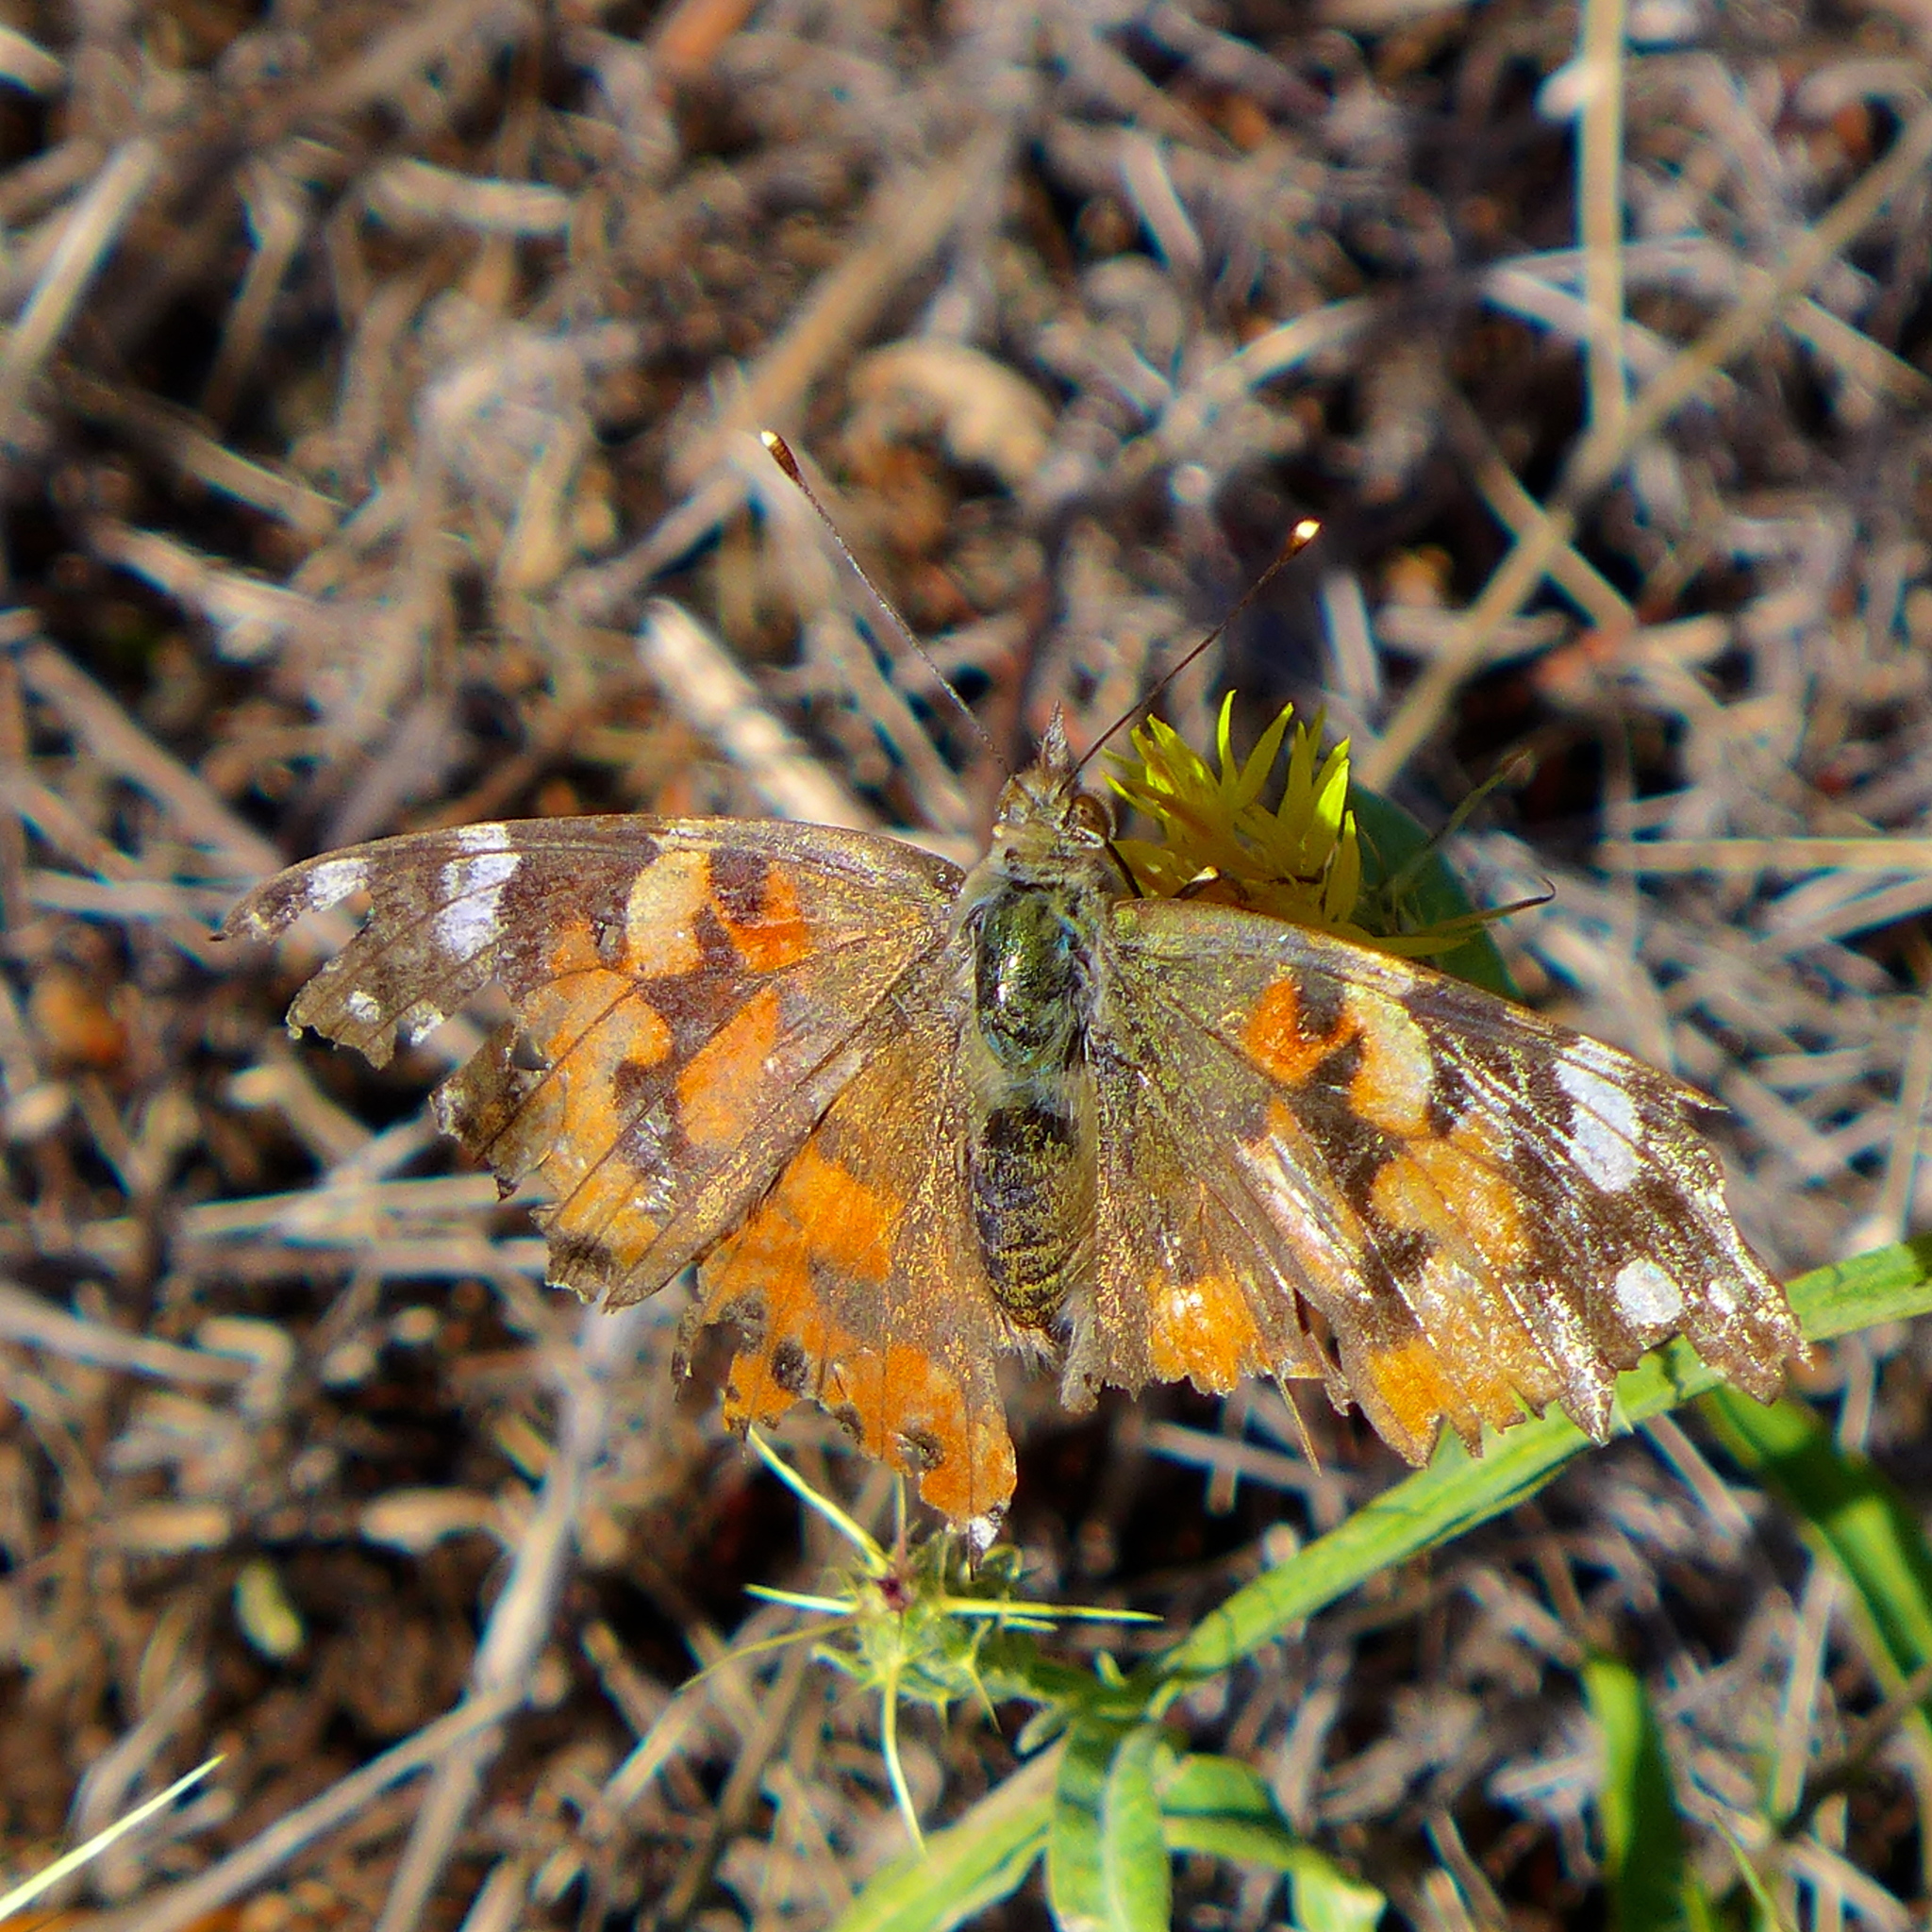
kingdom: Animalia
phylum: Arthropoda
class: Insecta
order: Lepidoptera
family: Nymphalidae
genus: Vanessa
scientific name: Vanessa cardui
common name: Painted lady
